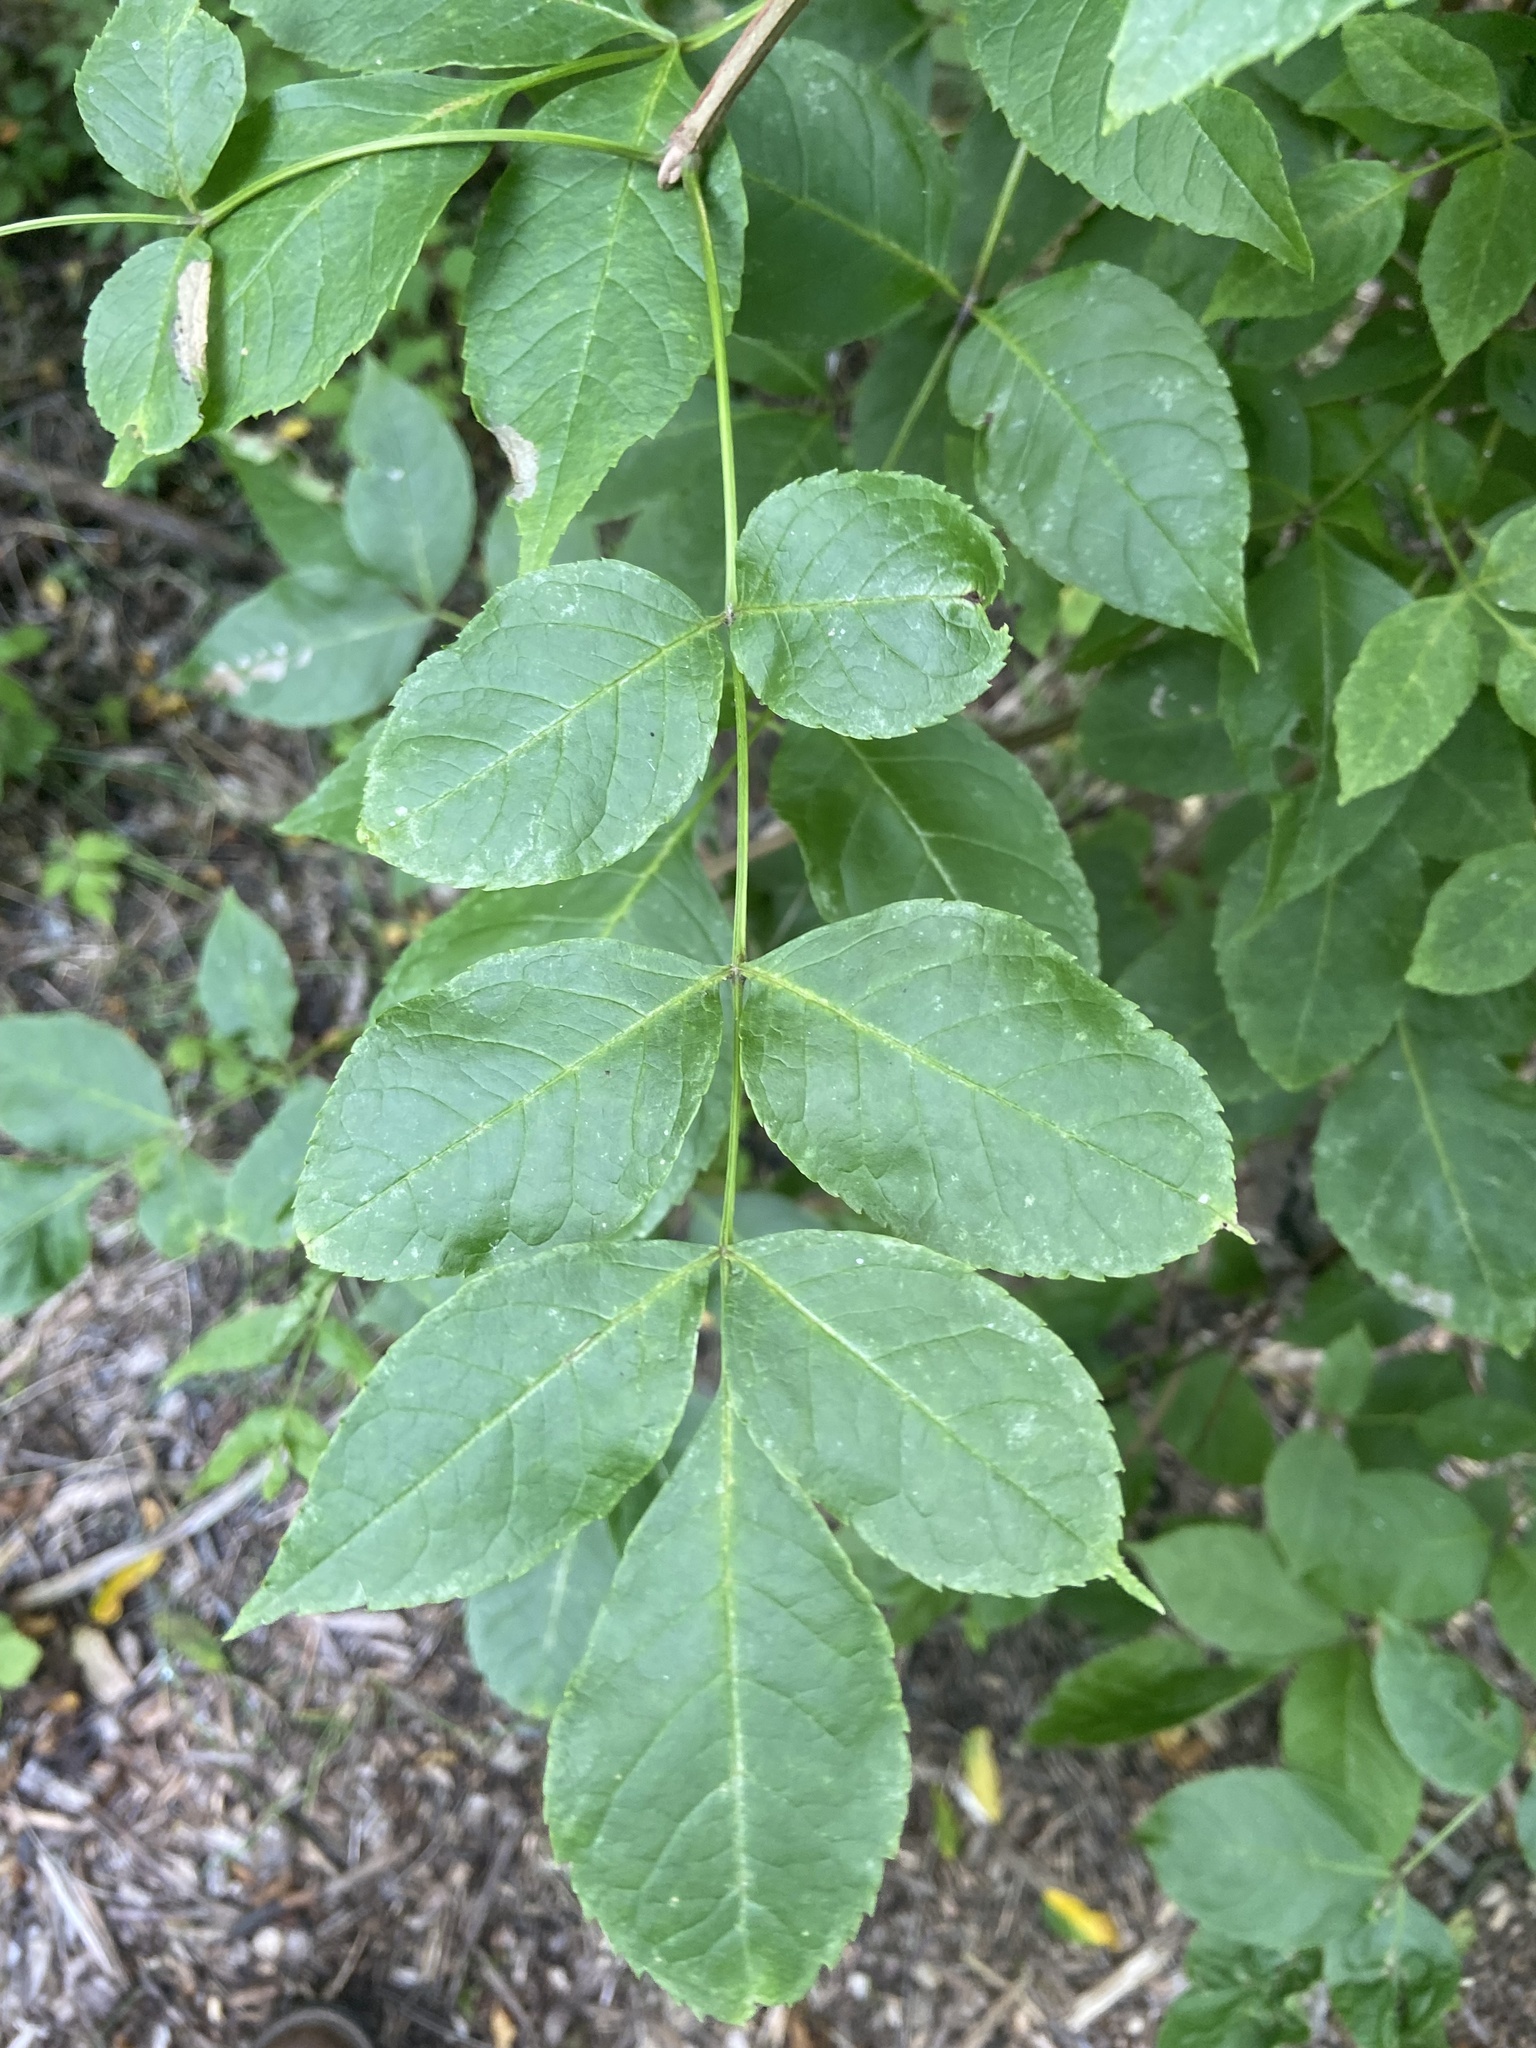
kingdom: Plantae
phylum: Tracheophyta
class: Magnoliopsida
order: Lamiales
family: Oleaceae
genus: Fraxinus
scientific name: Fraxinus quadrangulata
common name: Blue ash
